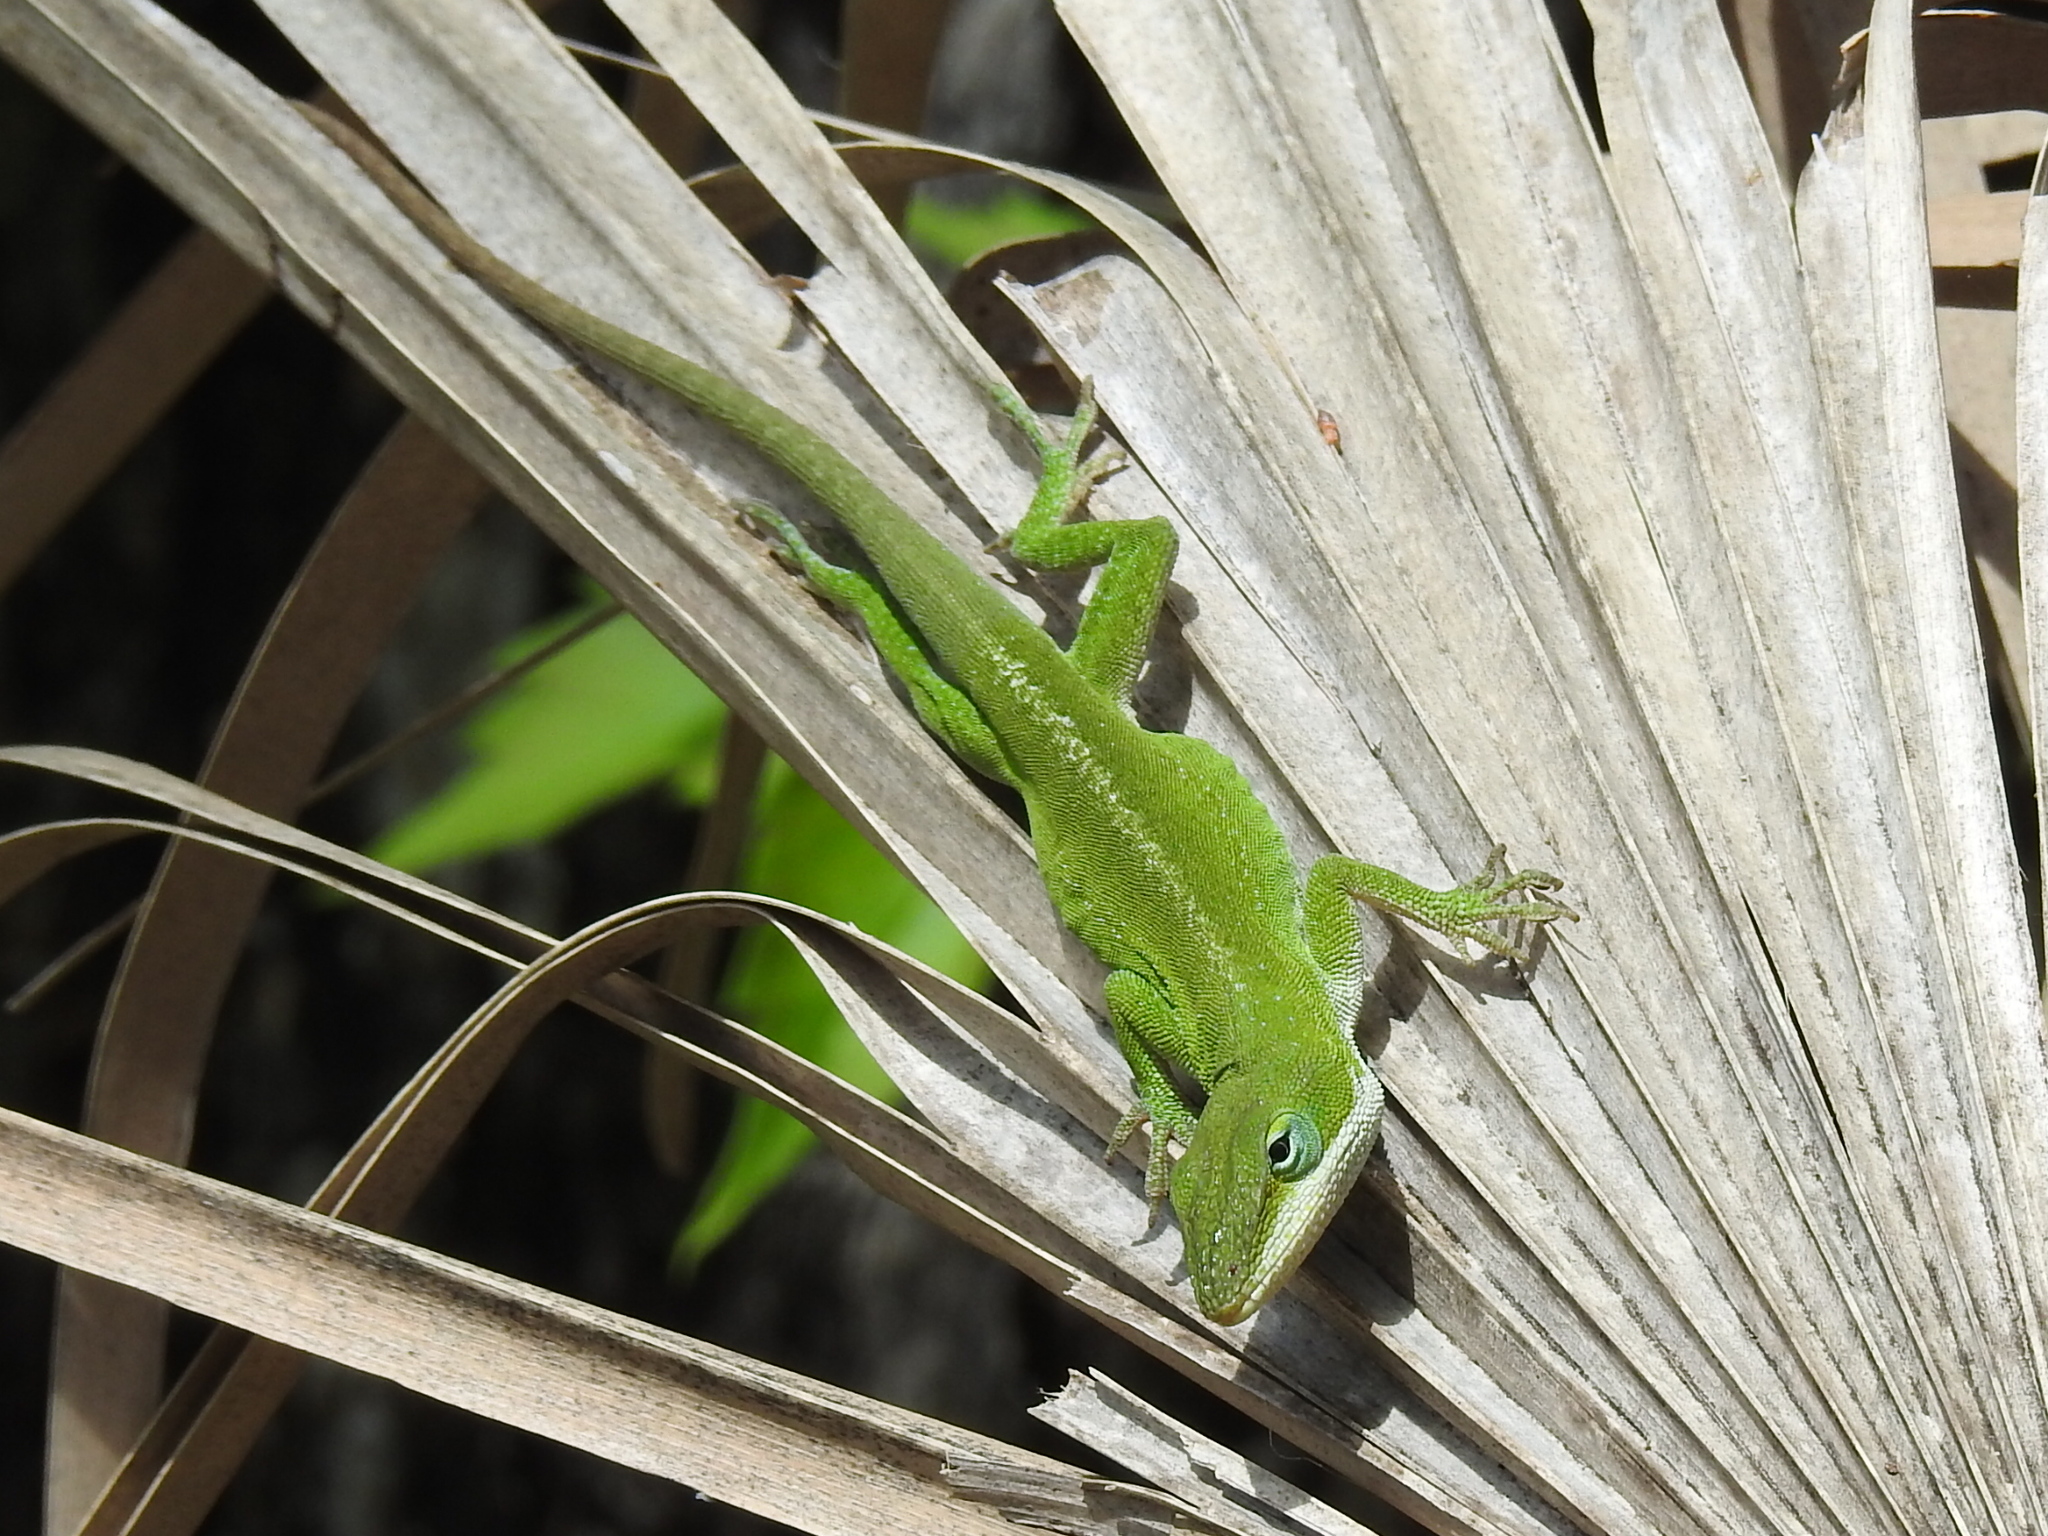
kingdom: Animalia
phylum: Chordata
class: Squamata
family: Dactyloidae
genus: Anolis
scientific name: Anolis carolinensis
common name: Green anole
